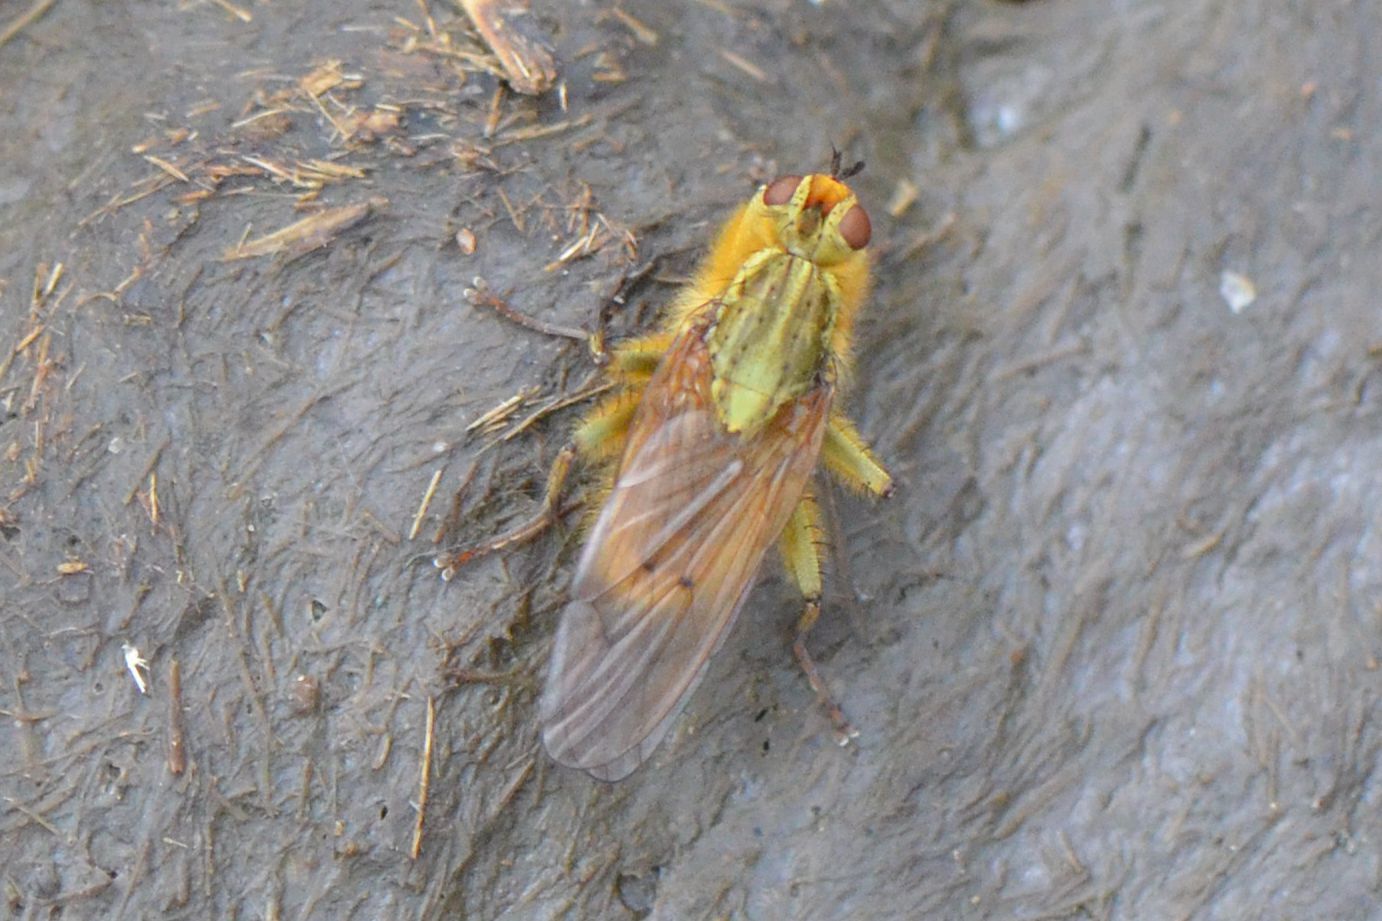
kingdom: Animalia
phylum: Arthropoda
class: Insecta
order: Diptera
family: Scathophagidae
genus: Scathophaga
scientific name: Scathophaga stercoraria
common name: Yellow dung fly
